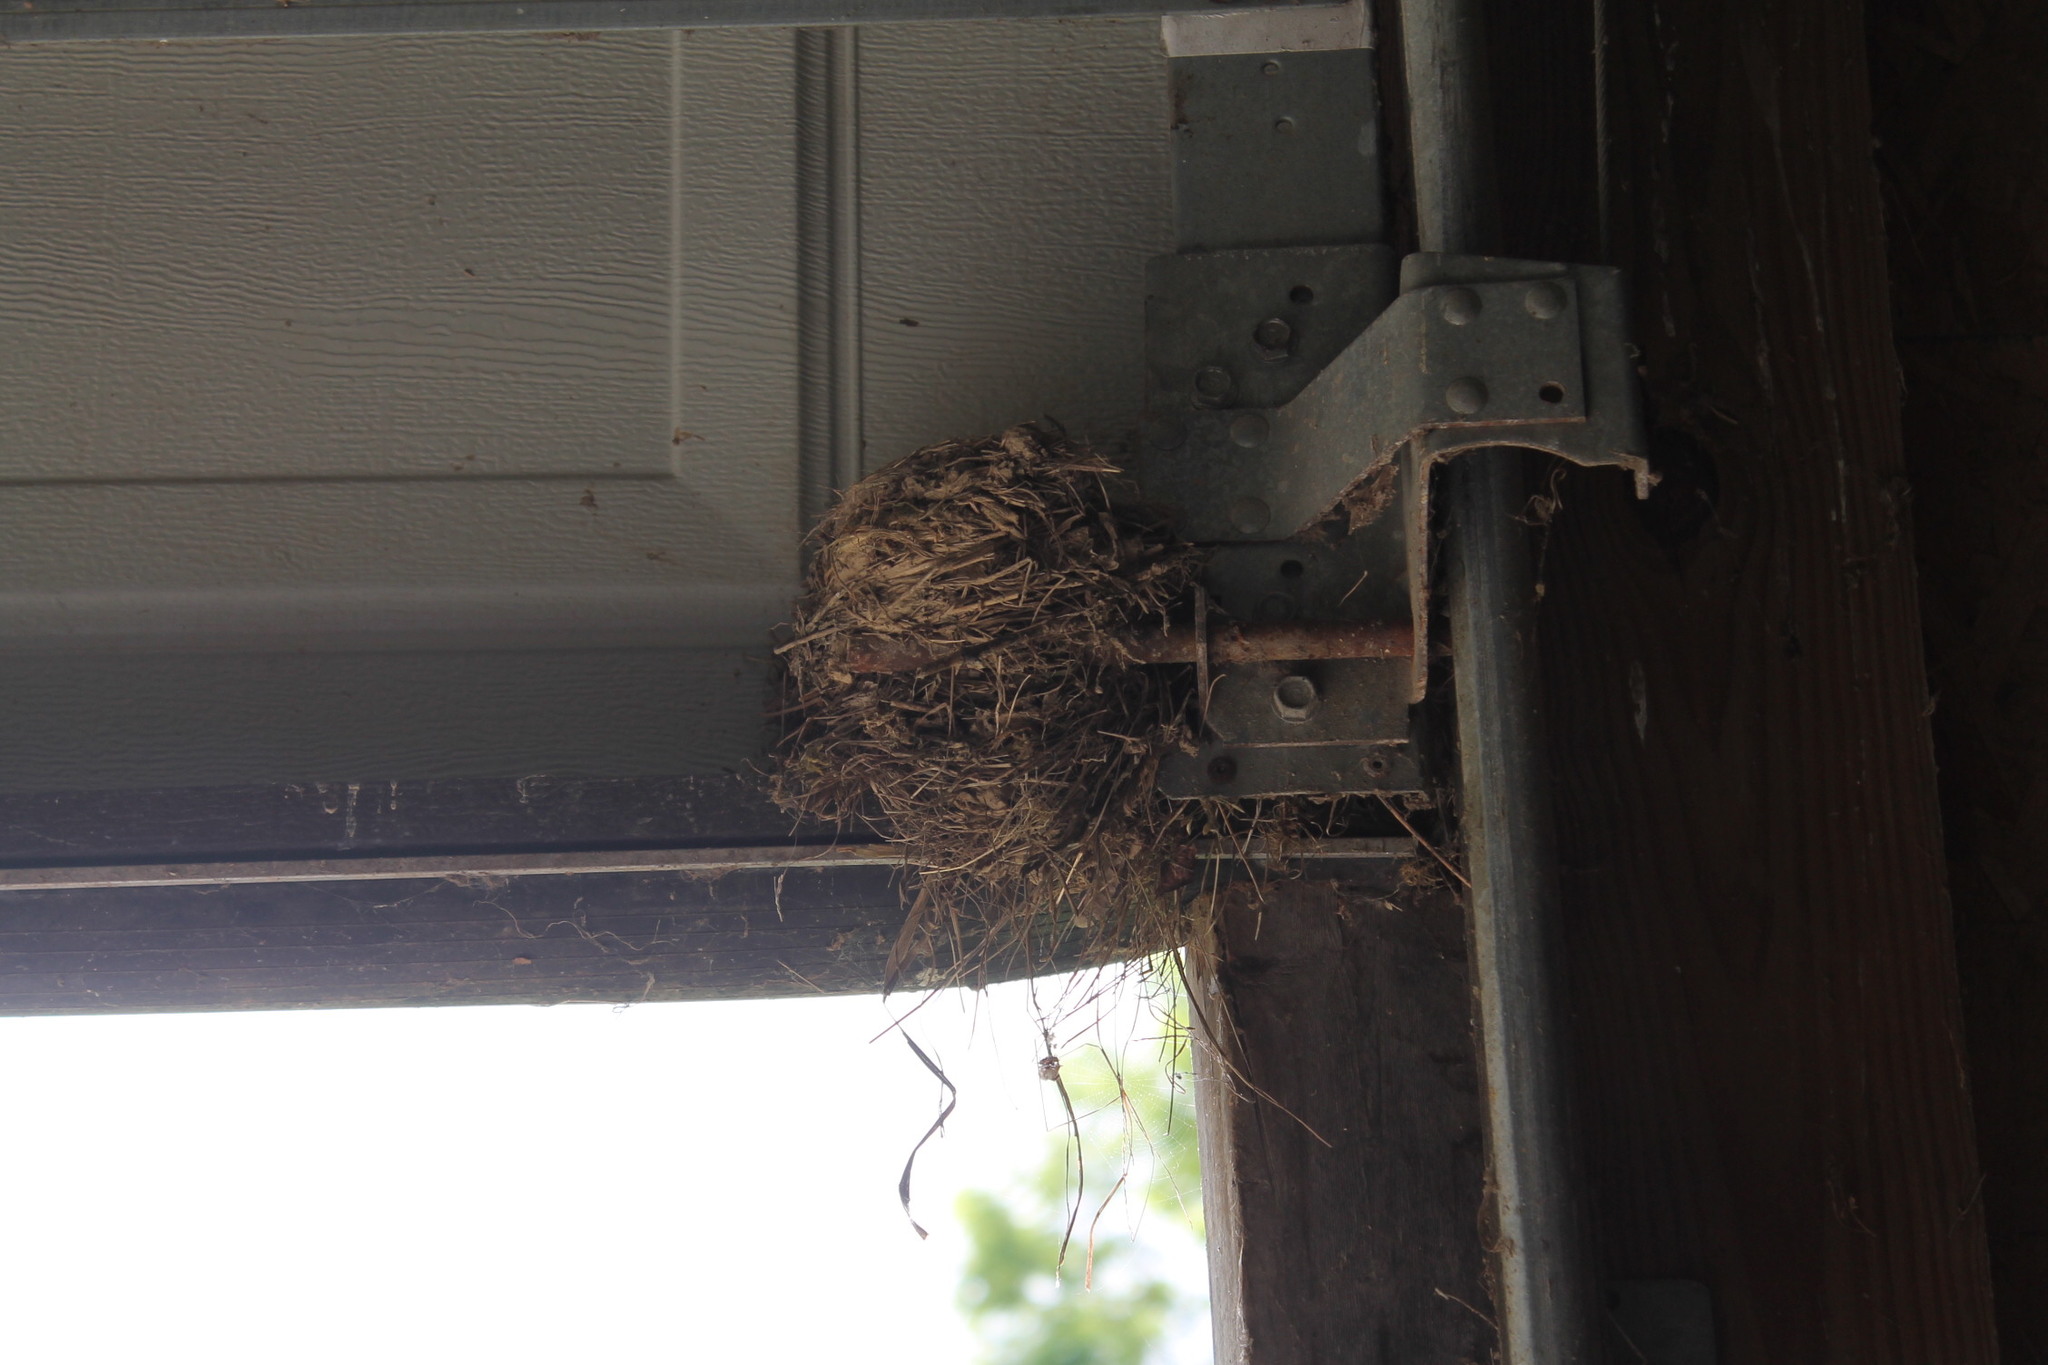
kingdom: Animalia
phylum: Chordata
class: Aves
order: Passeriformes
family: Turdidae
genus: Turdus
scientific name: Turdus migratorius
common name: American robin
